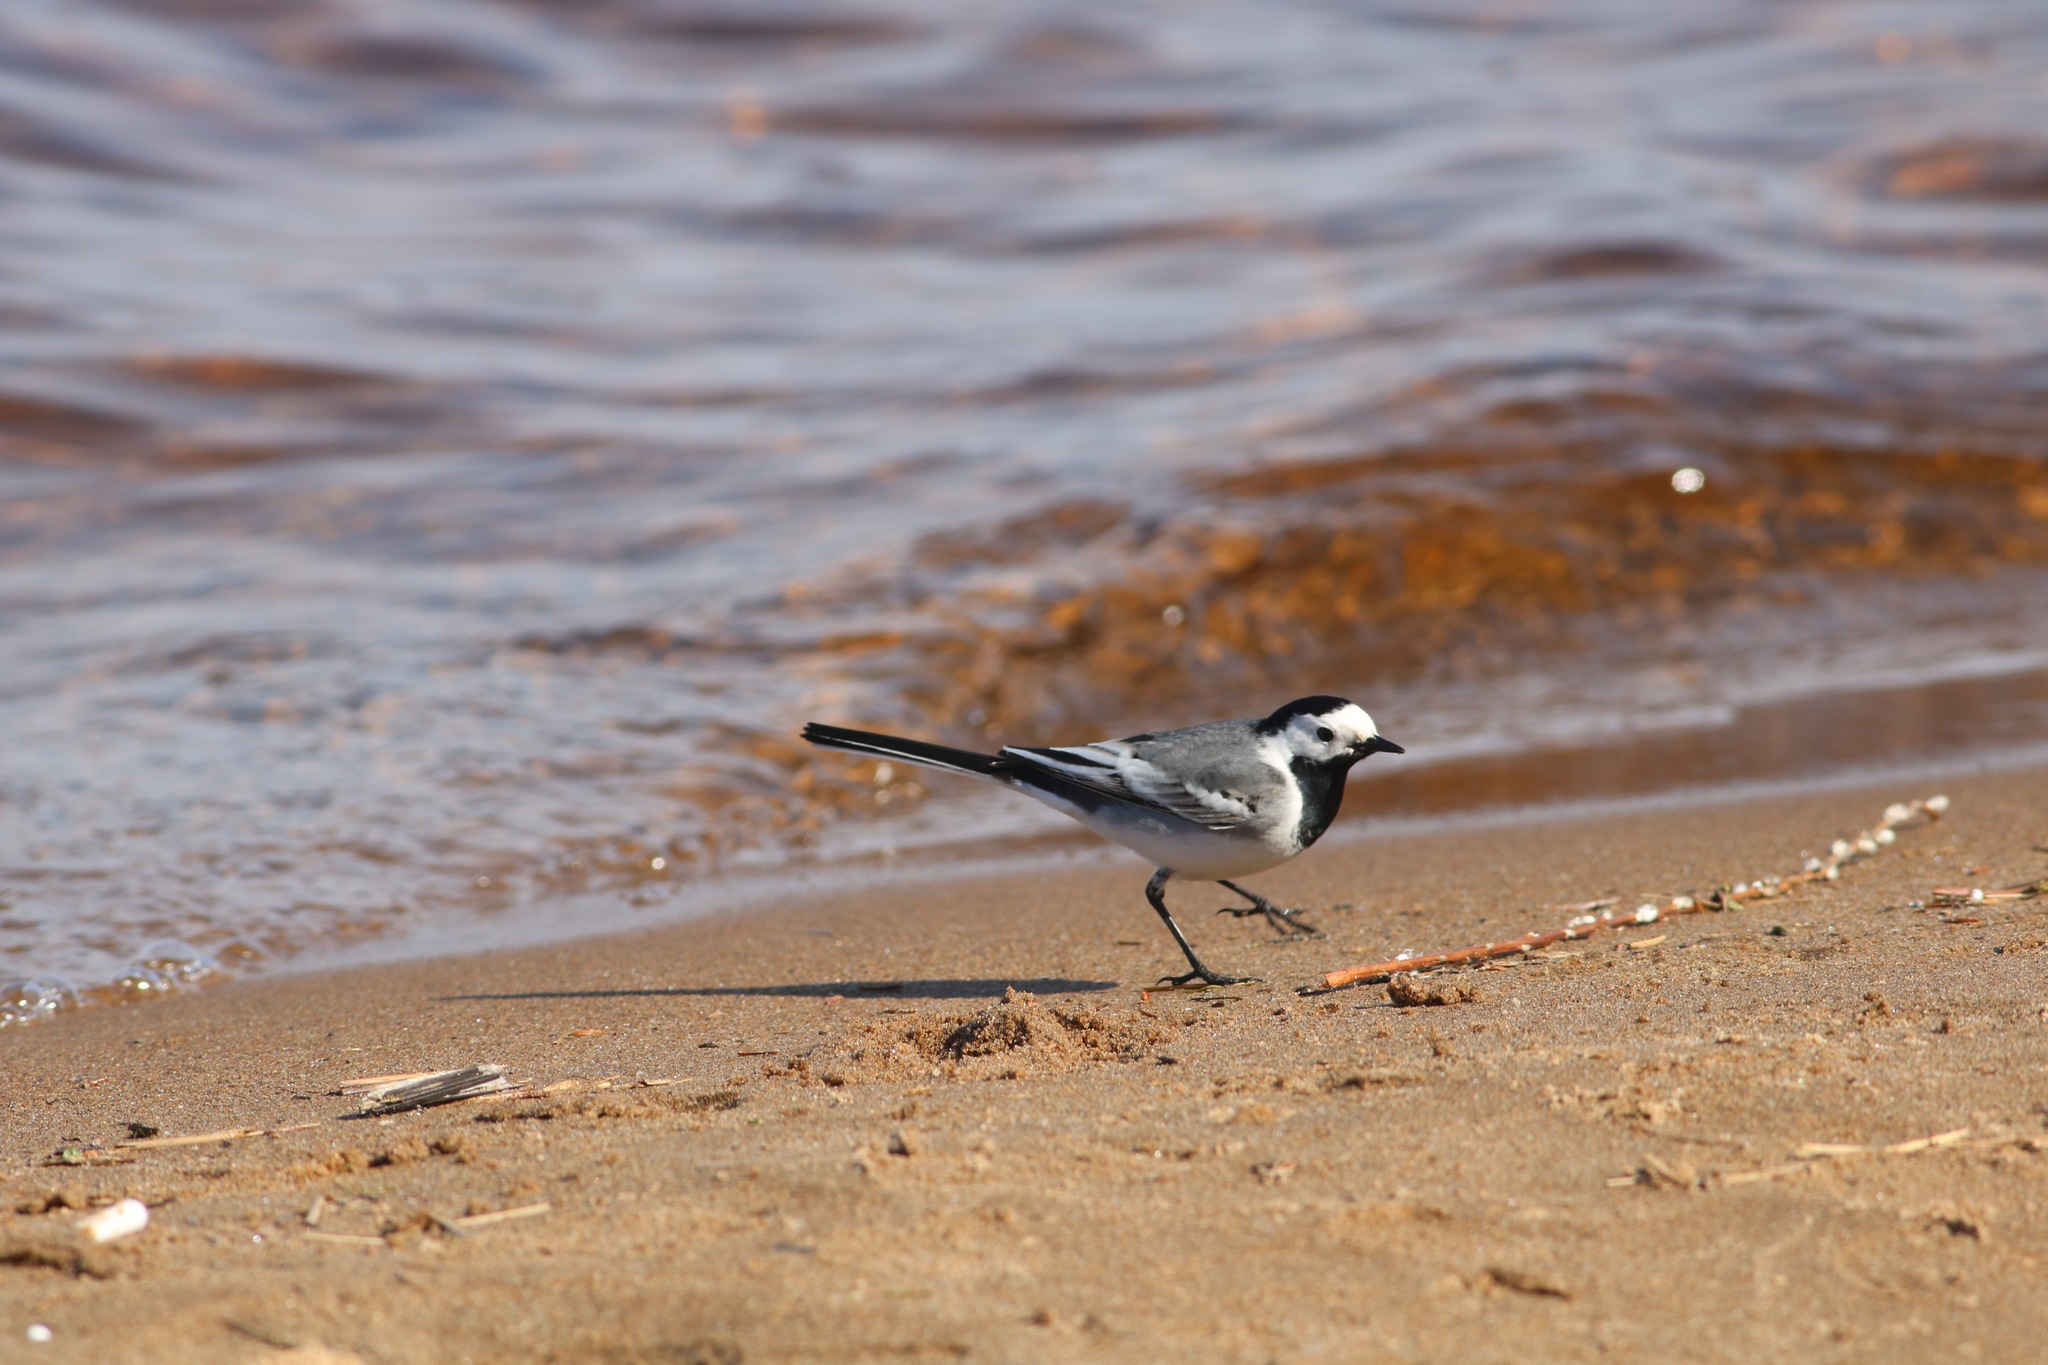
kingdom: Animalia
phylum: Chordata
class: Aves
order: Passeriformes
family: Motacillidae
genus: Motacilla
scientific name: Motacilla alba
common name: White wagtail
